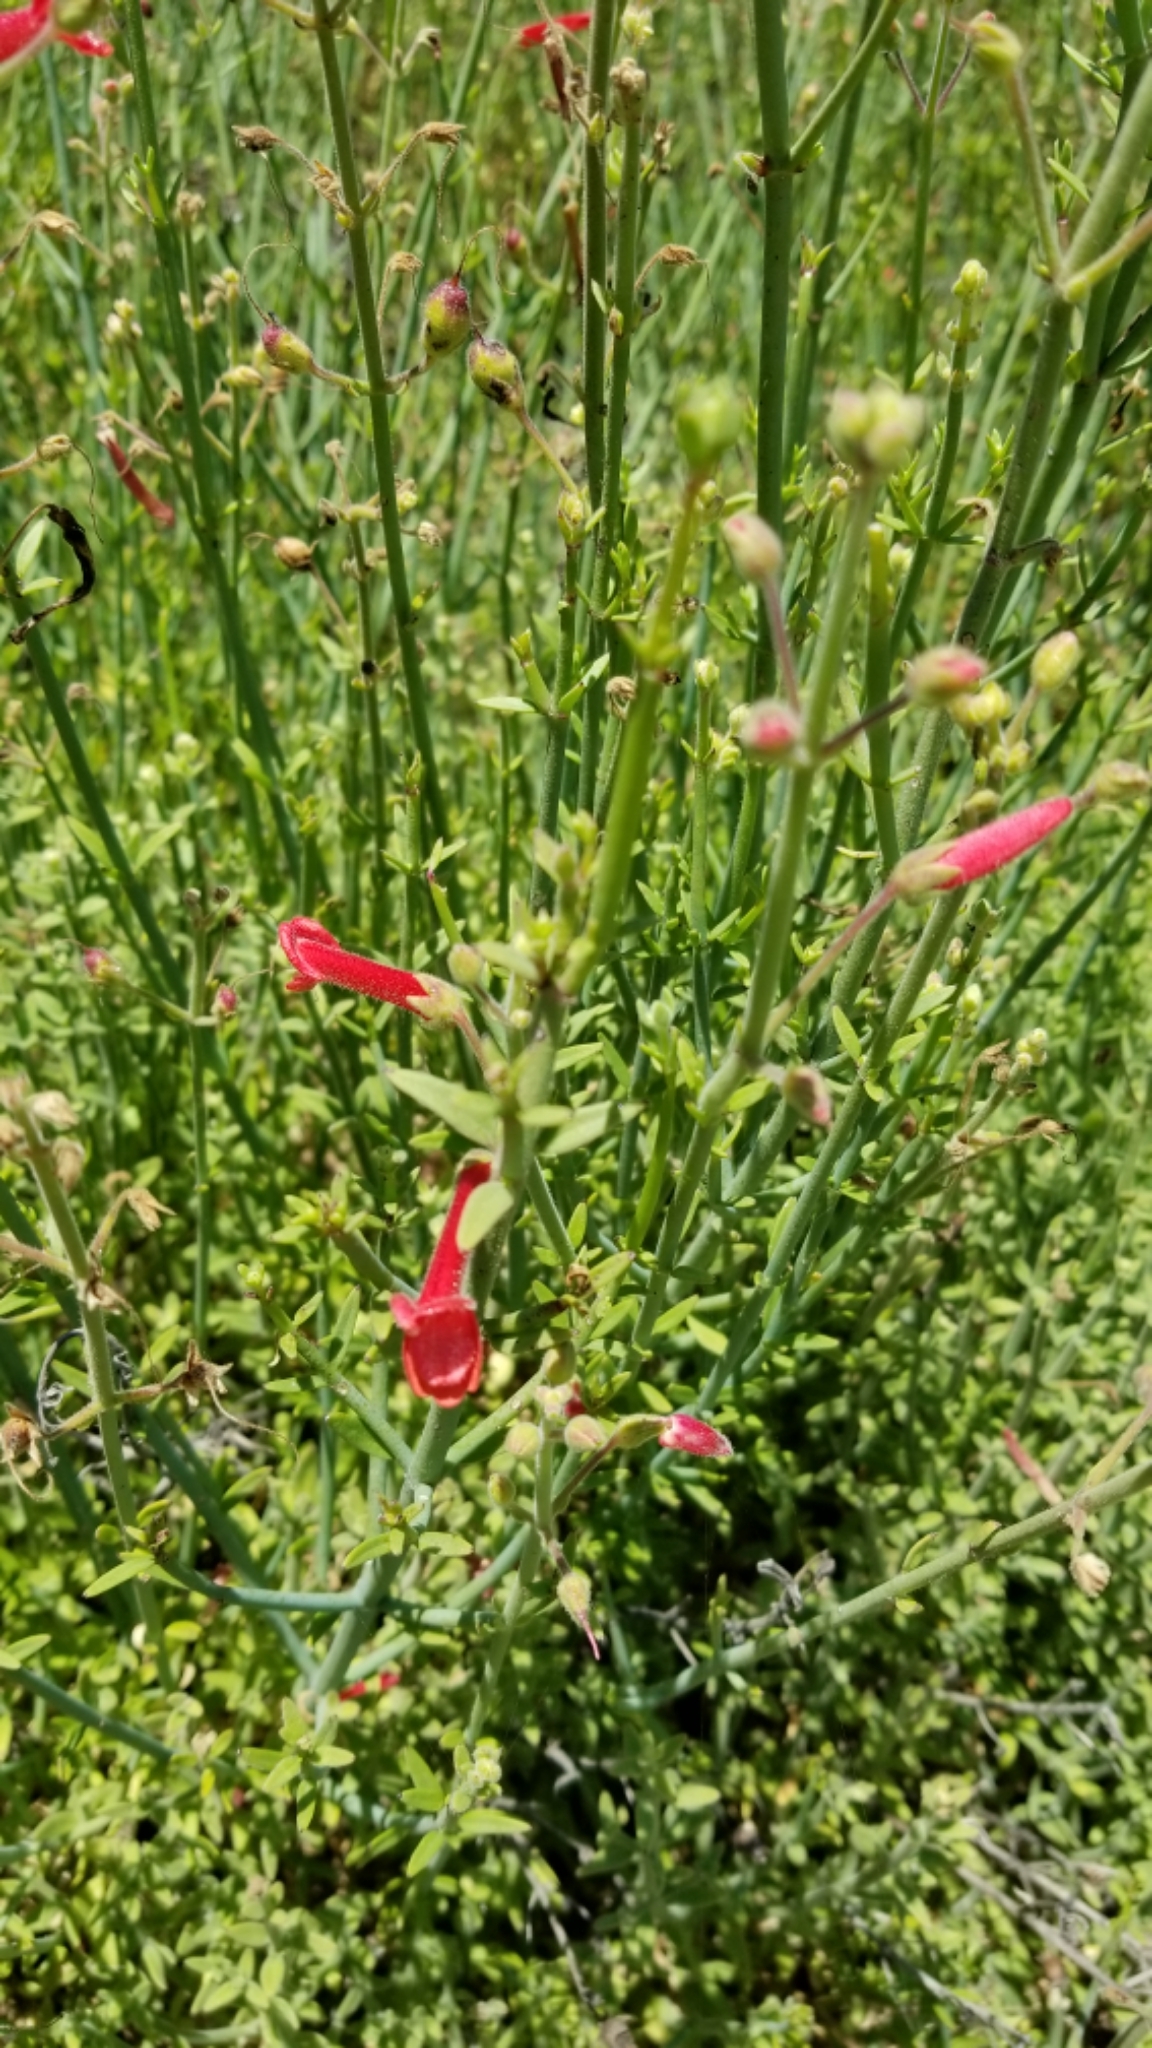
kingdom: Plantae
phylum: Tracheophyta
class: Magnoliopsida
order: Lamiales
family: Plantaginaceae
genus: Gambelia
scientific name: Gambelia juncea
